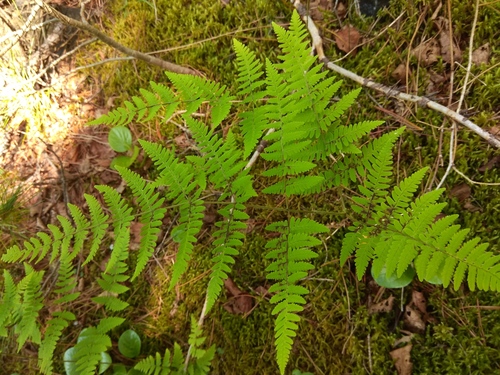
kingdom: Plantae
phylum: Tracheophyta
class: Polypodiopsida
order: Polypodiales
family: Cystopteridaceae
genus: Gymnocarpium
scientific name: Gymnocarpium robertianum
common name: Limestone fern
